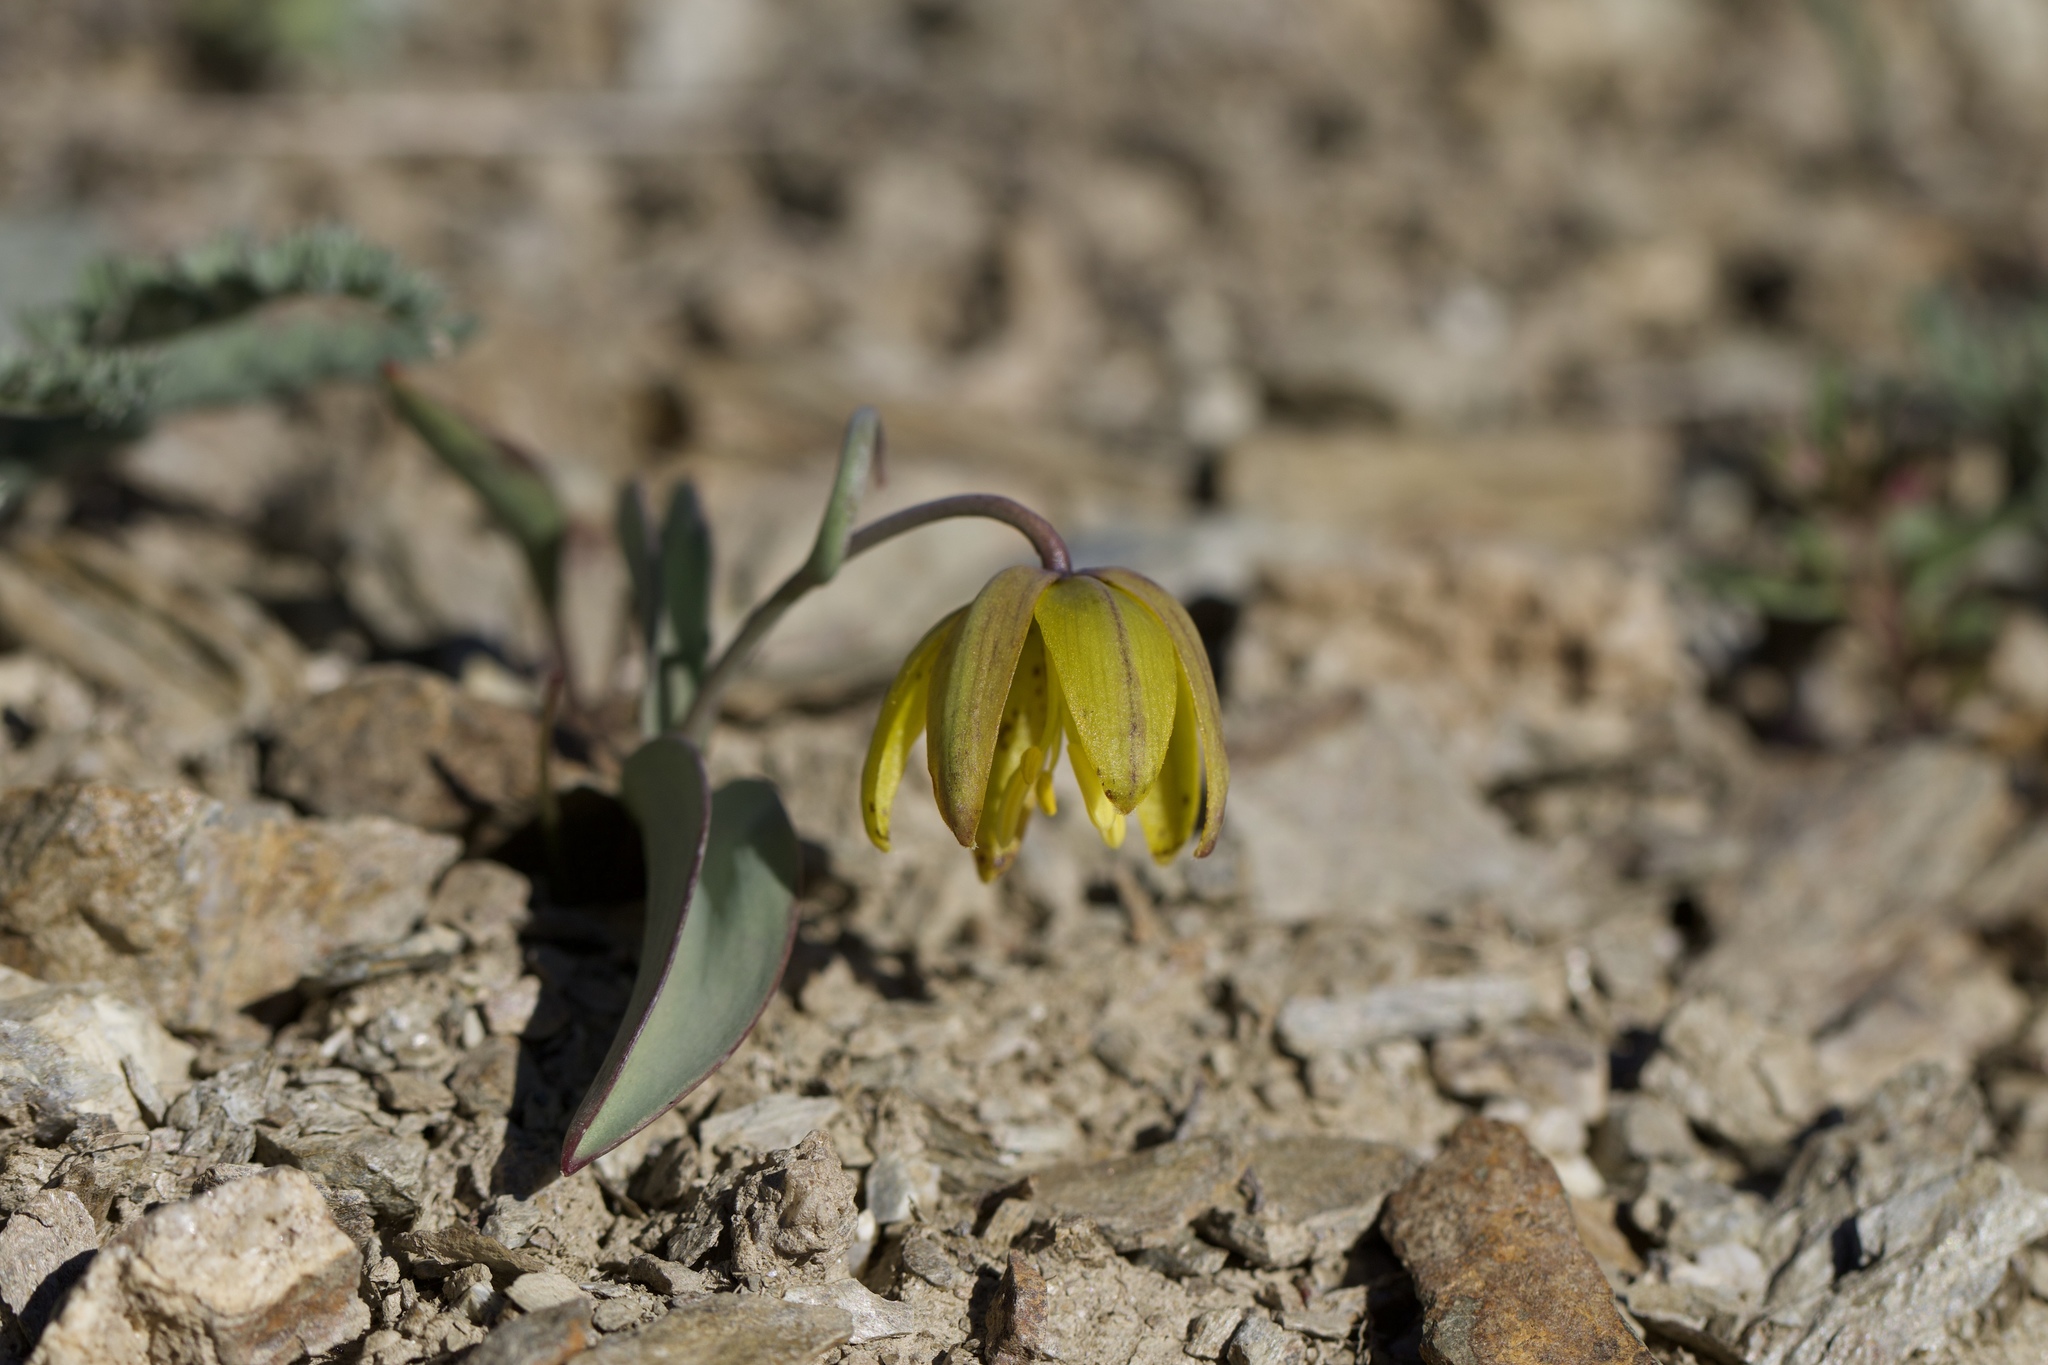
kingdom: Plantae
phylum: Tracheophyta
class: Liliopsida
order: Liliales
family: Liliaceae
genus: Fritillaria
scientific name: Fritillaria glauca
